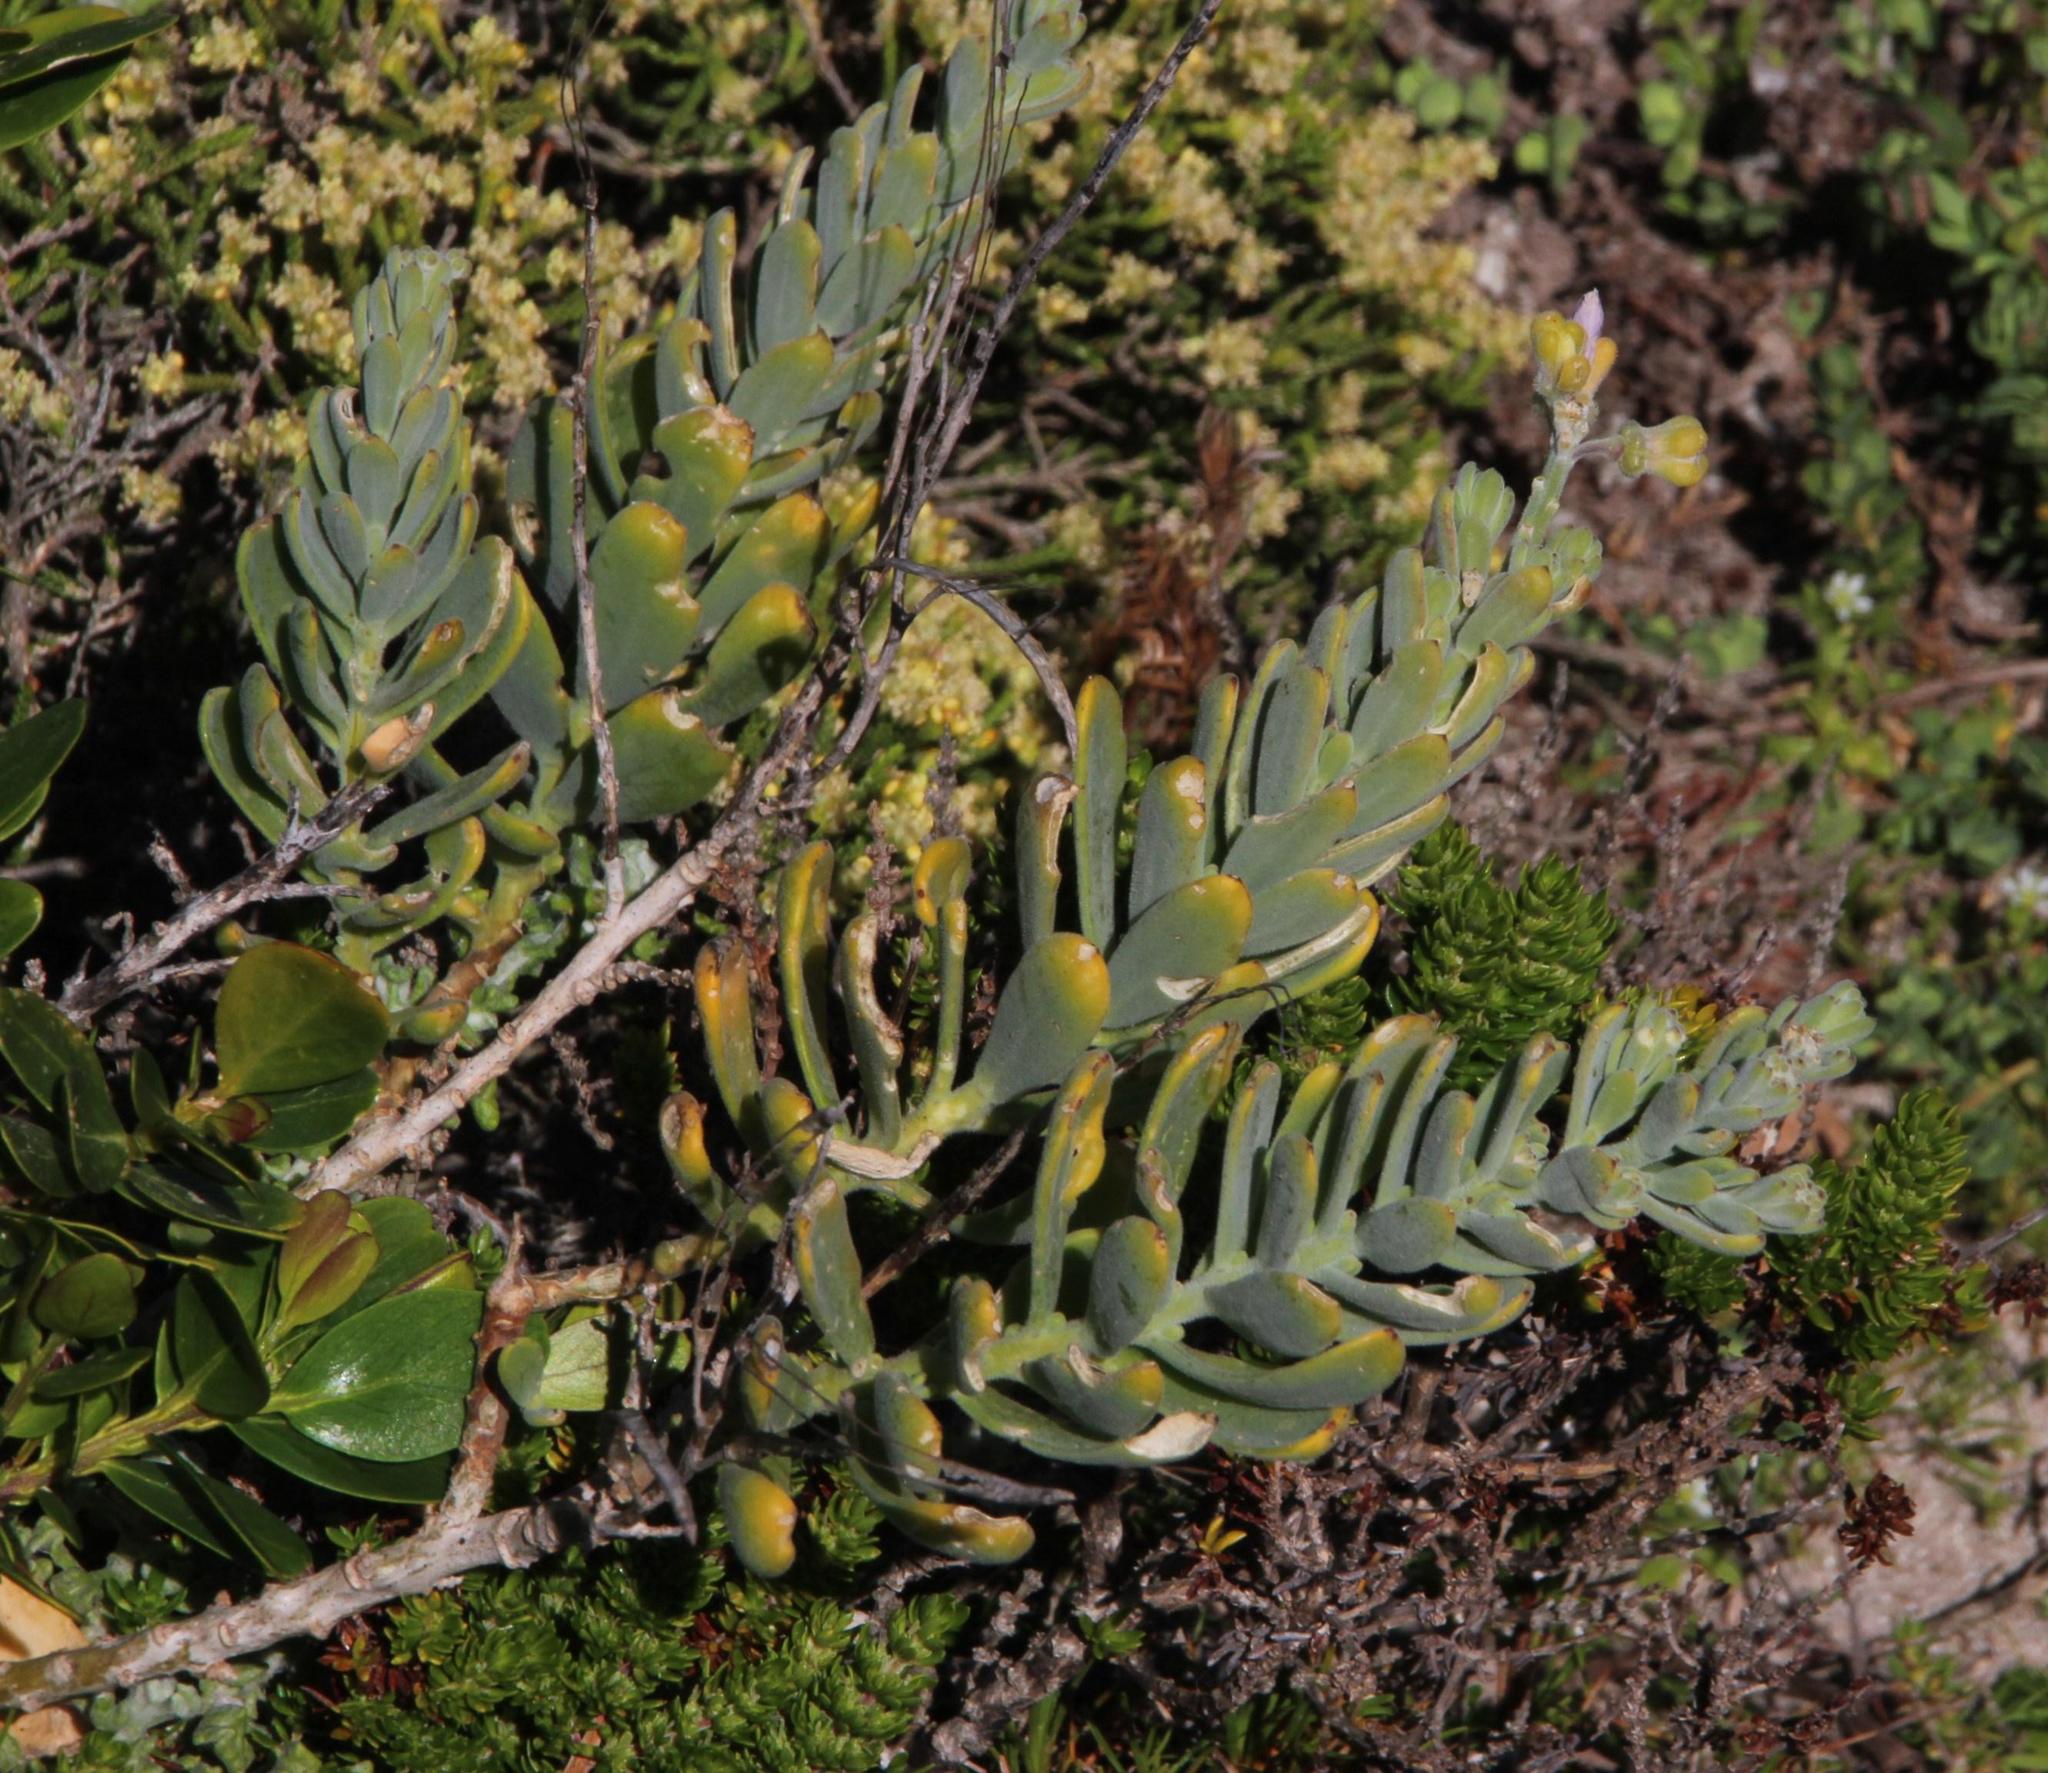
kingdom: Plantae
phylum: Tracheophyta
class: Magnoliopsida
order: Brassicales
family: Brassicaceae
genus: Heliophila
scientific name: Heliophila cinerea
